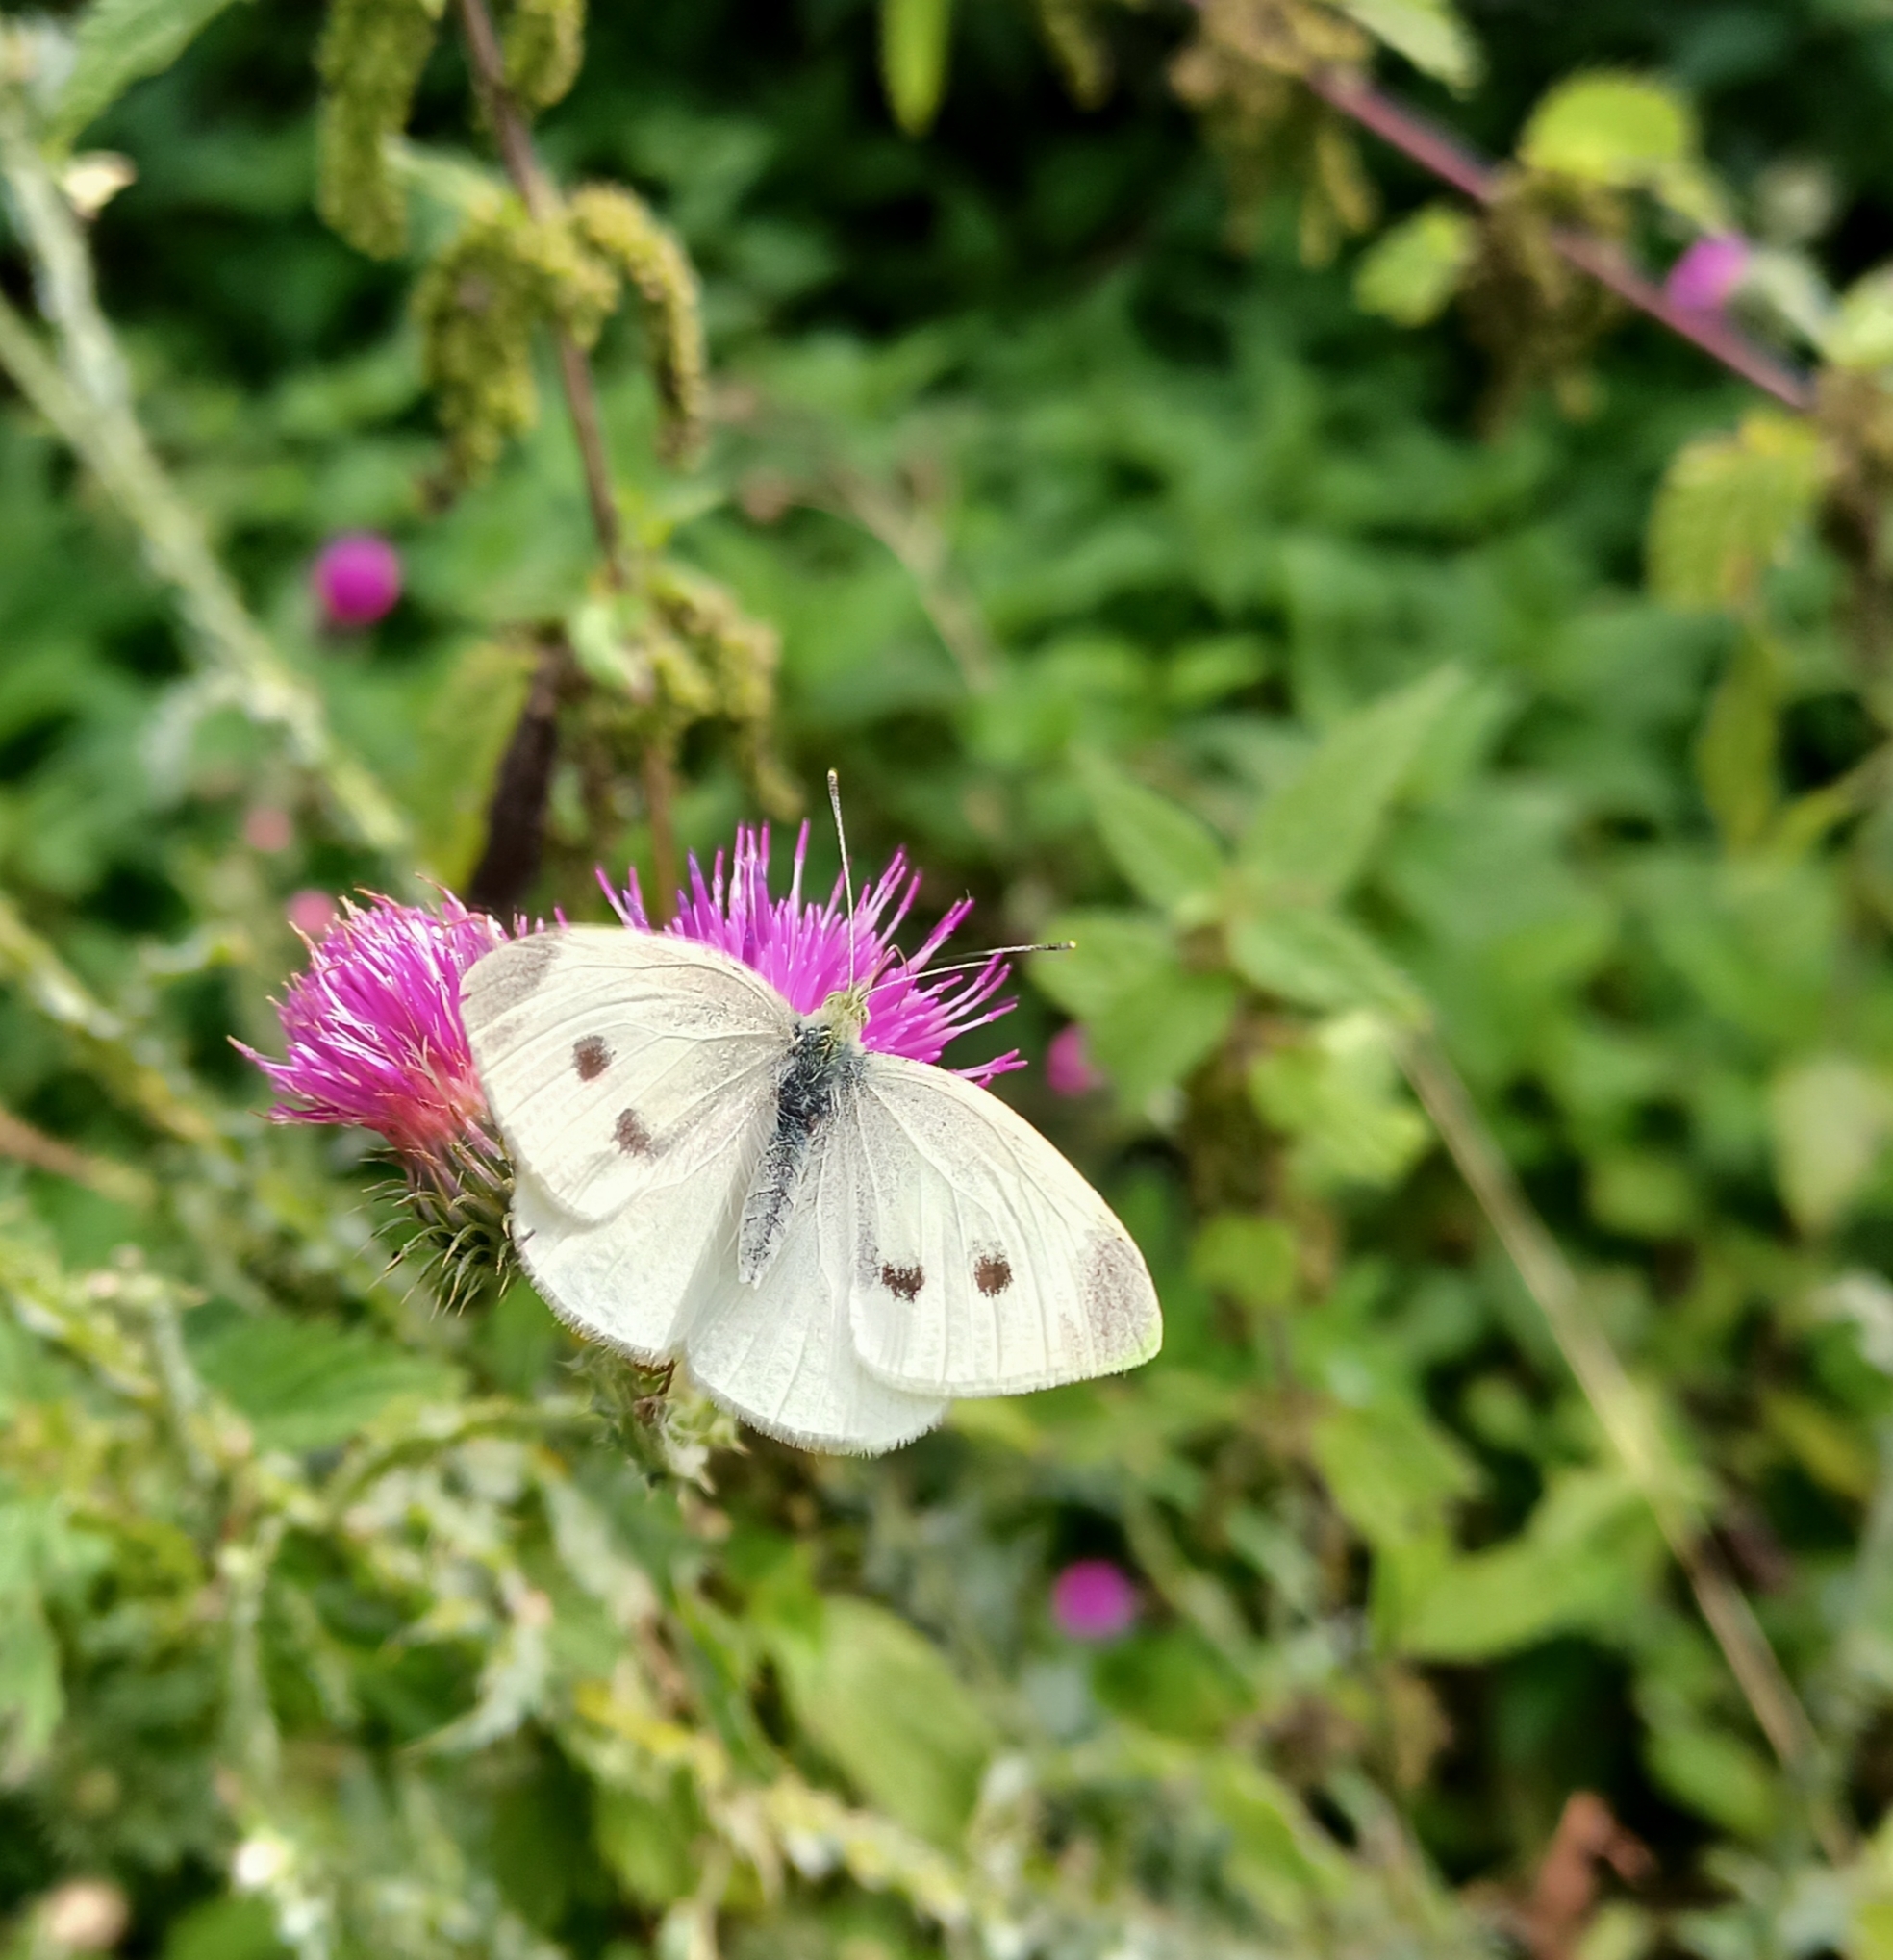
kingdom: Animalia
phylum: Arthropoda
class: Insecta
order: Lepidoptera
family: Pieridae
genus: Pieris
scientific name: Pieris rapae
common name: Small white
